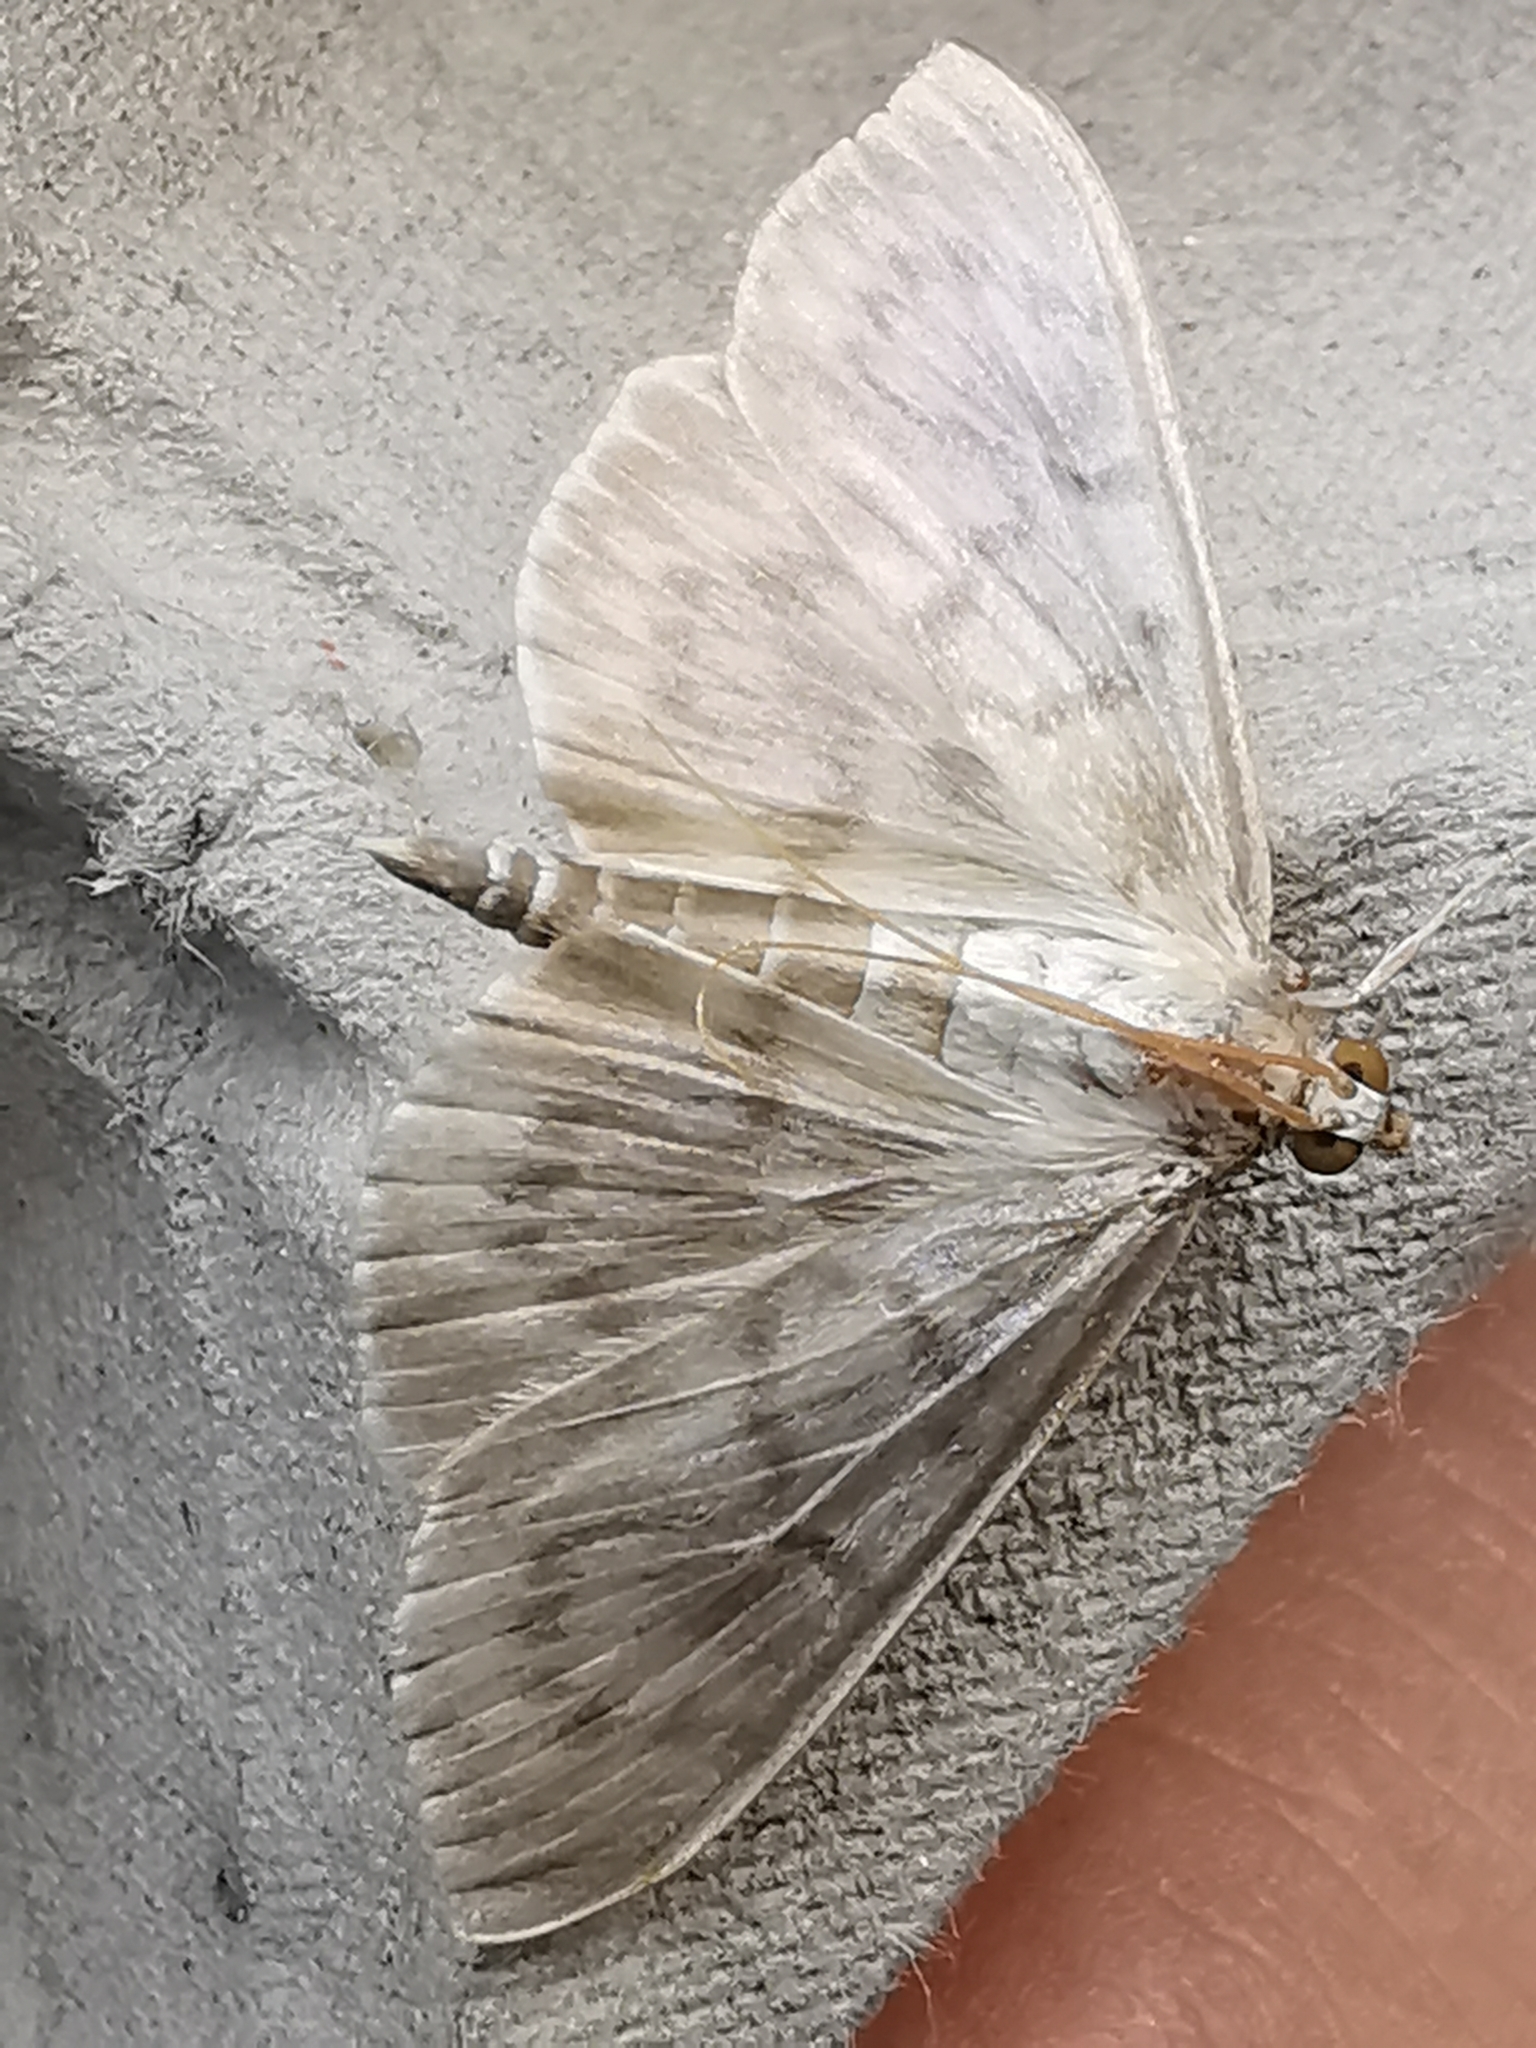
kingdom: Animalia
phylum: Arthropoda
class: Insecta
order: Lepidoptera
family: Crambidae
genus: Patania
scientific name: Patania ruralis
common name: Mother of pearl
